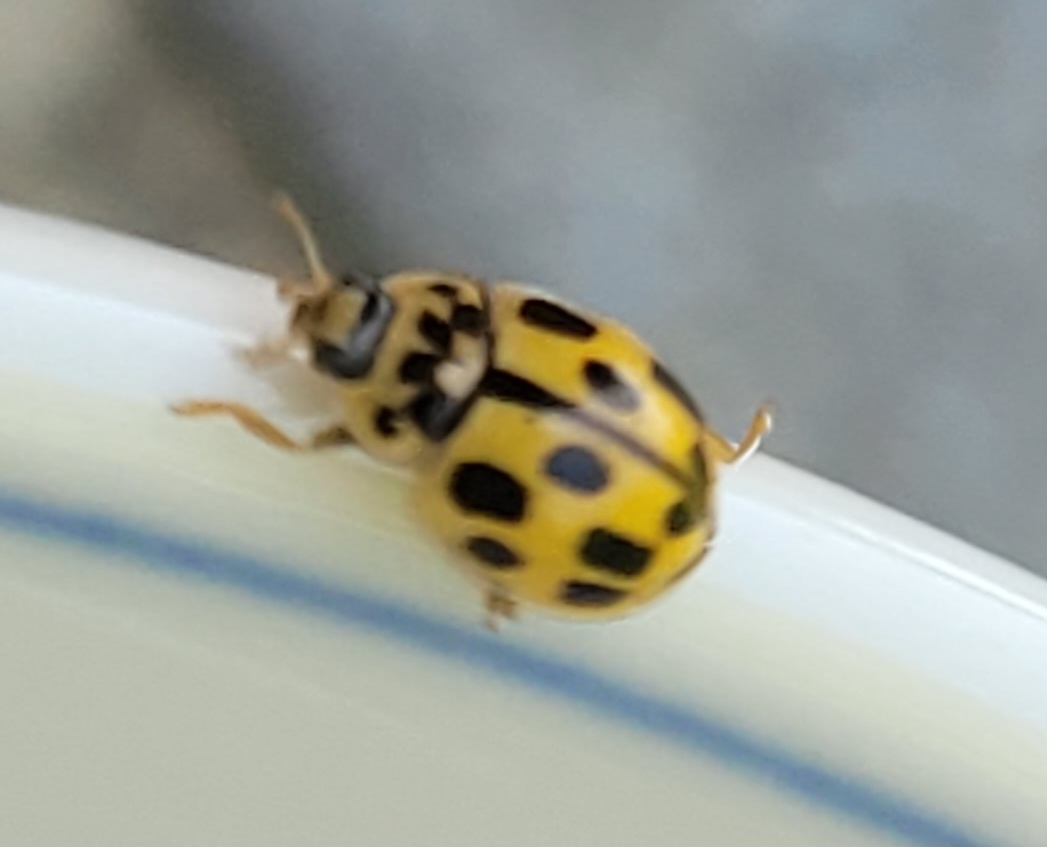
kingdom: Animalia
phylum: Arthropoda
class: Insecta
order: Coleoptera
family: Coccinellidae
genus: Propylaea
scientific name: Propylaea quatuordecimpunctata
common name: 14-spotted ladybird beetle
